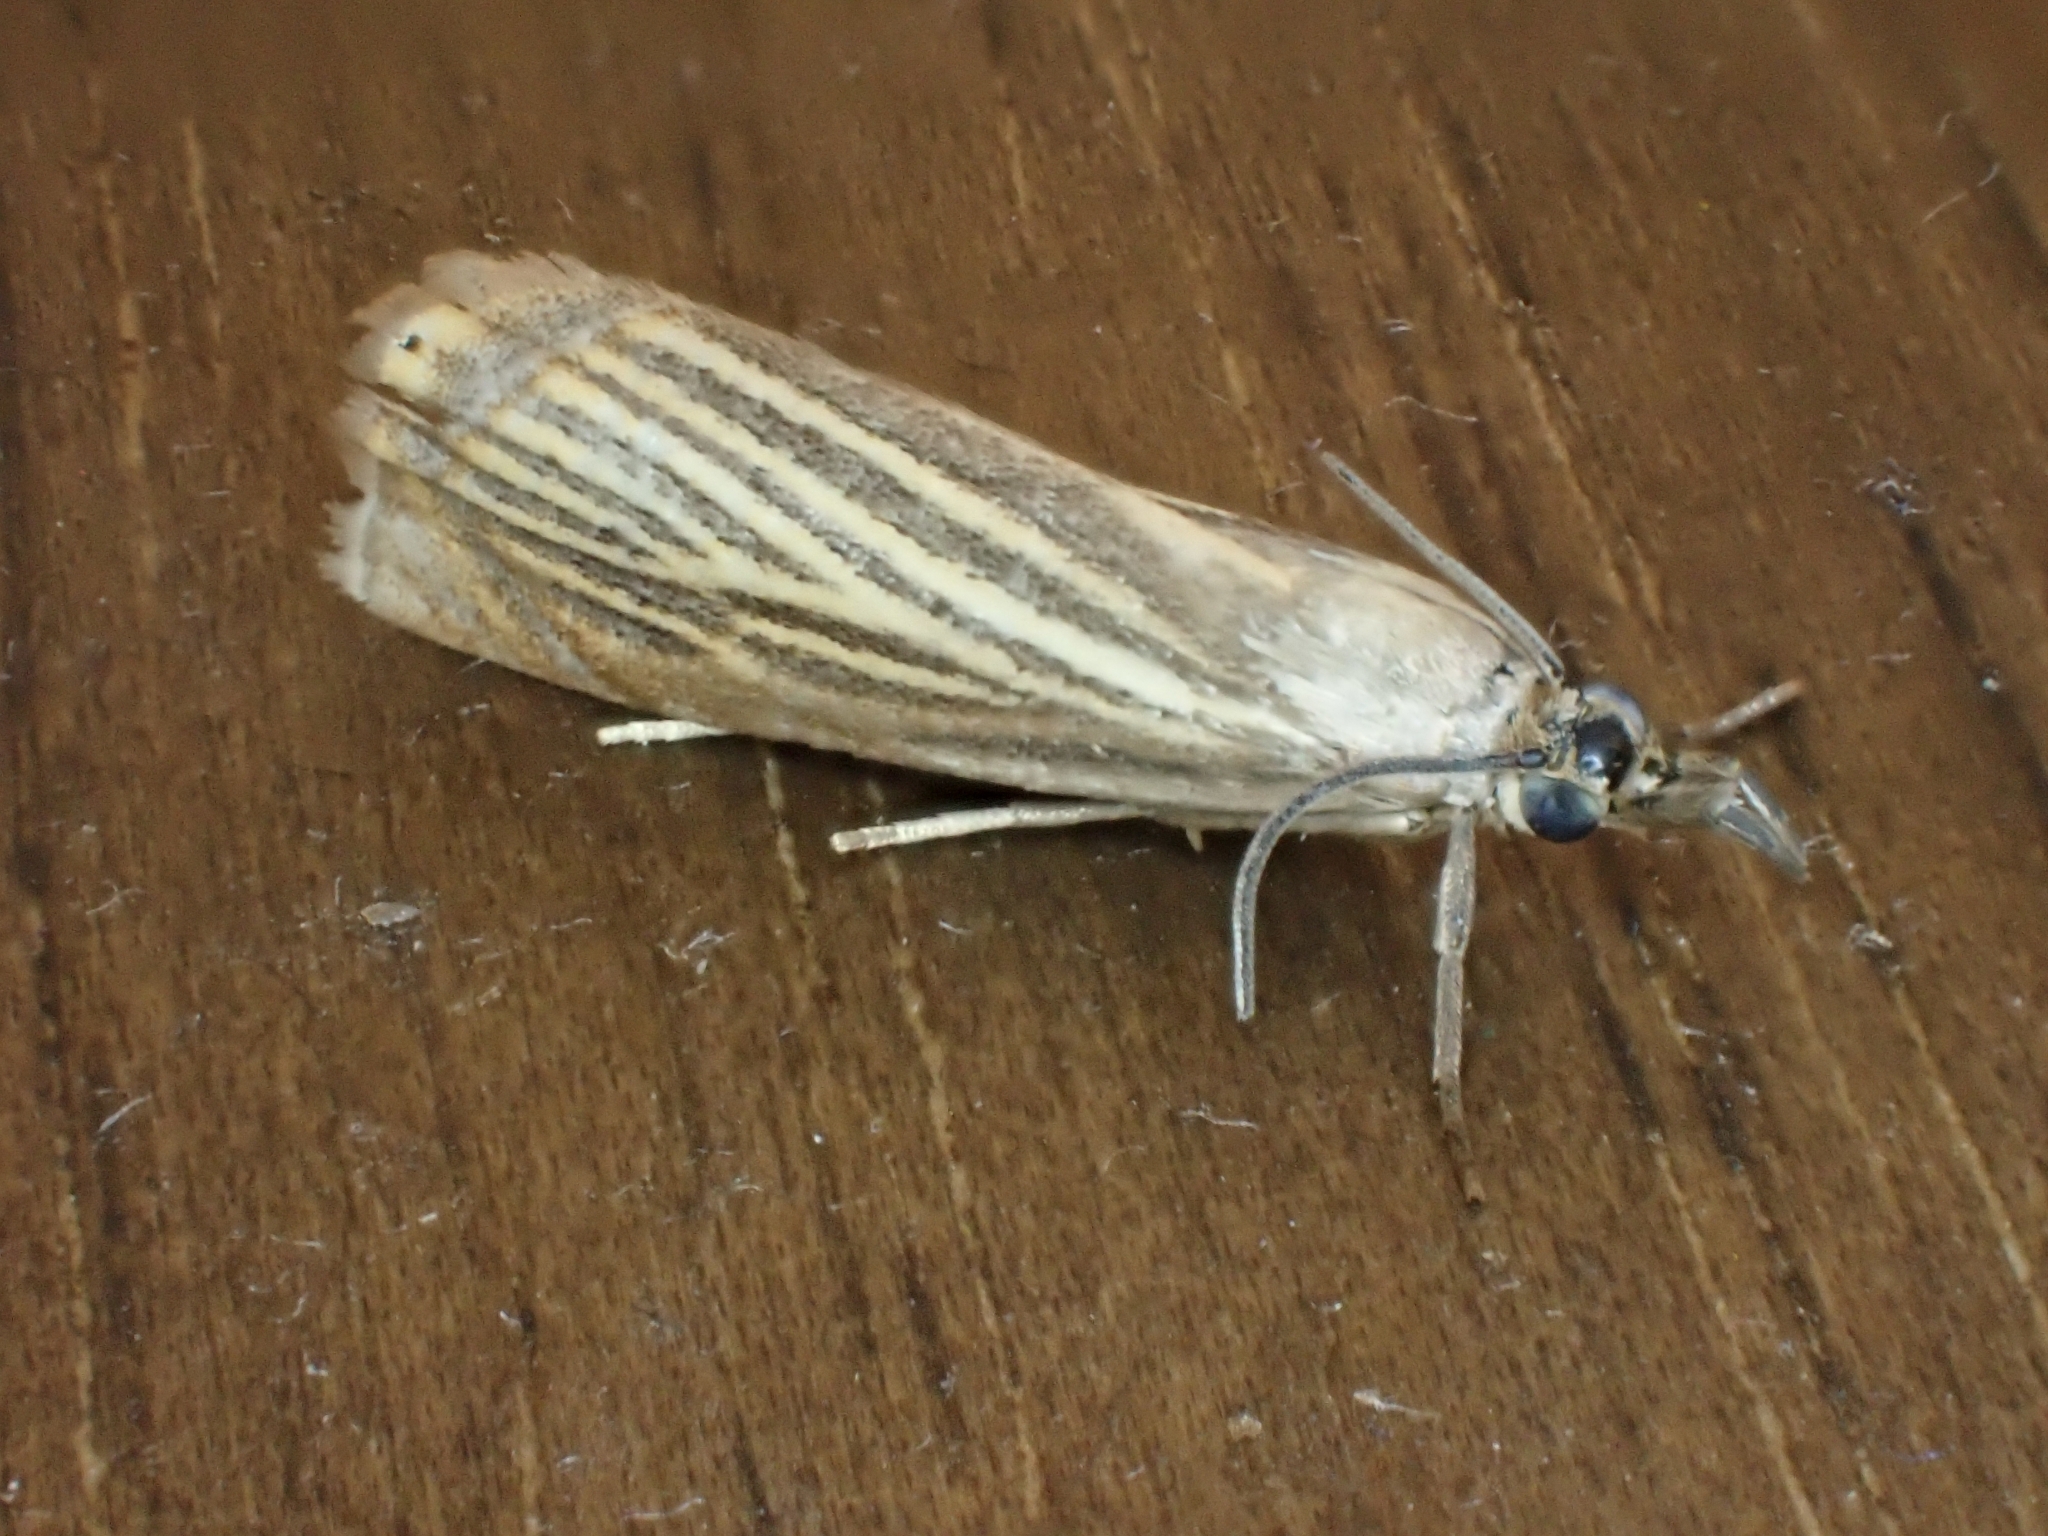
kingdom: Animalia
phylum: Arthropoda
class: Insecta
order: Lepidoptera
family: Crambidae
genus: Chrysoteuchia
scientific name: Chrysoteuchia culmella
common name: Garden grass-veneer
